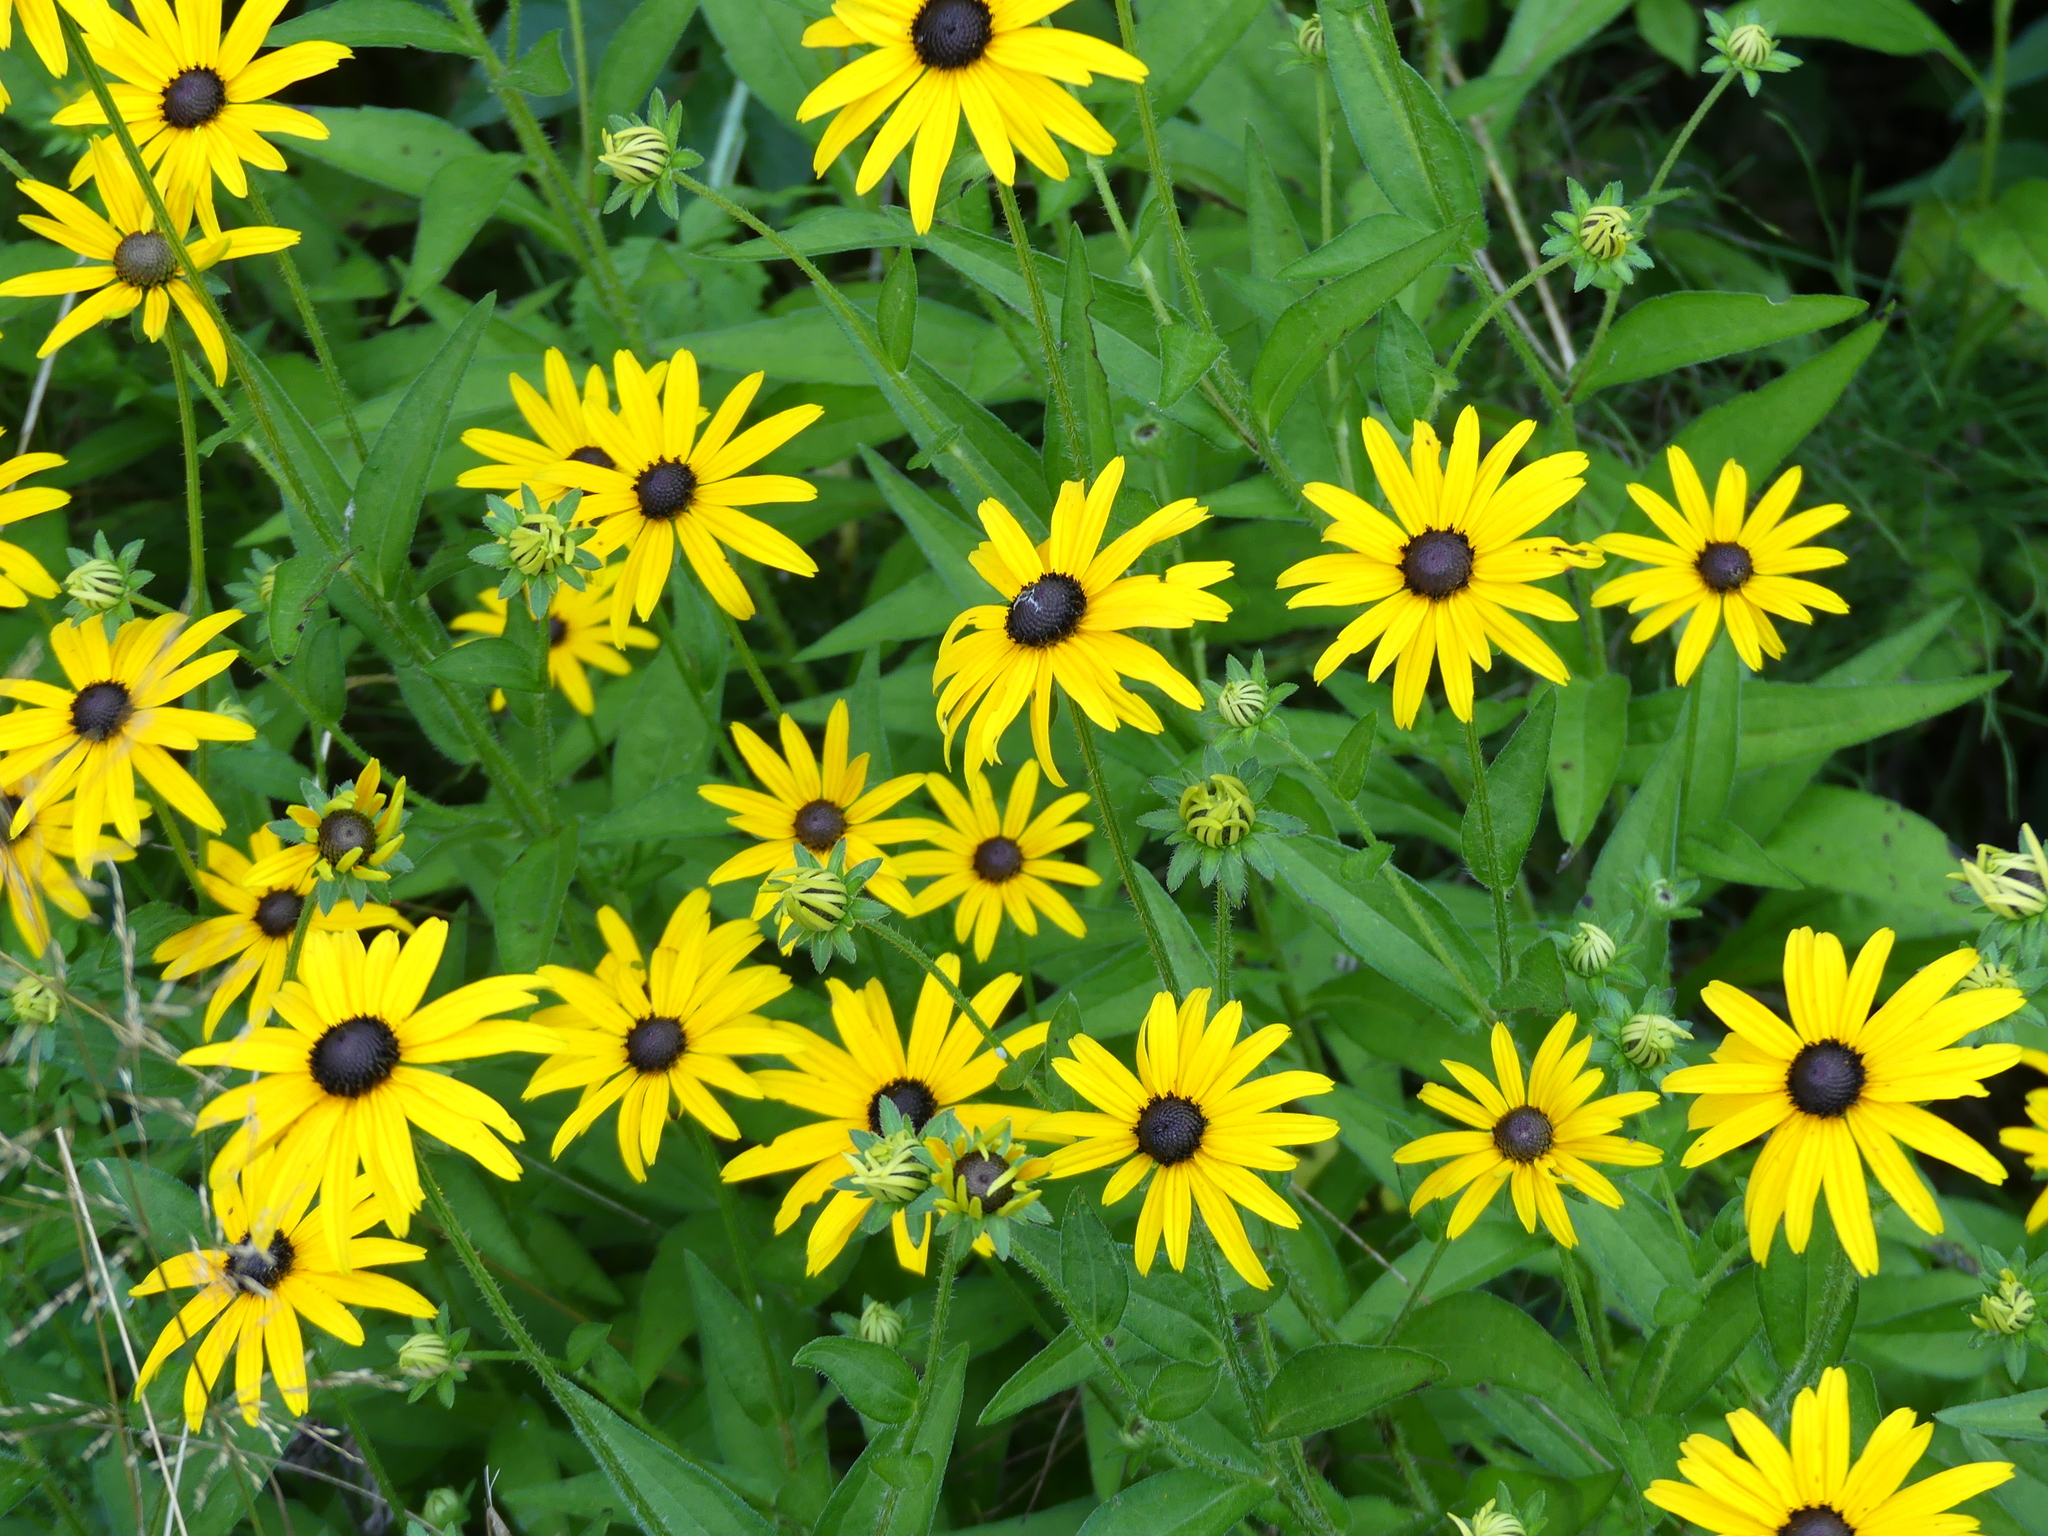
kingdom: Plantae
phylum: Tracheophyta
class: Magnoliopsida
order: Asterales
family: Asteraceae
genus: Rudbeckia
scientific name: Rudbeckia hirta
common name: Black-eyed-susan
